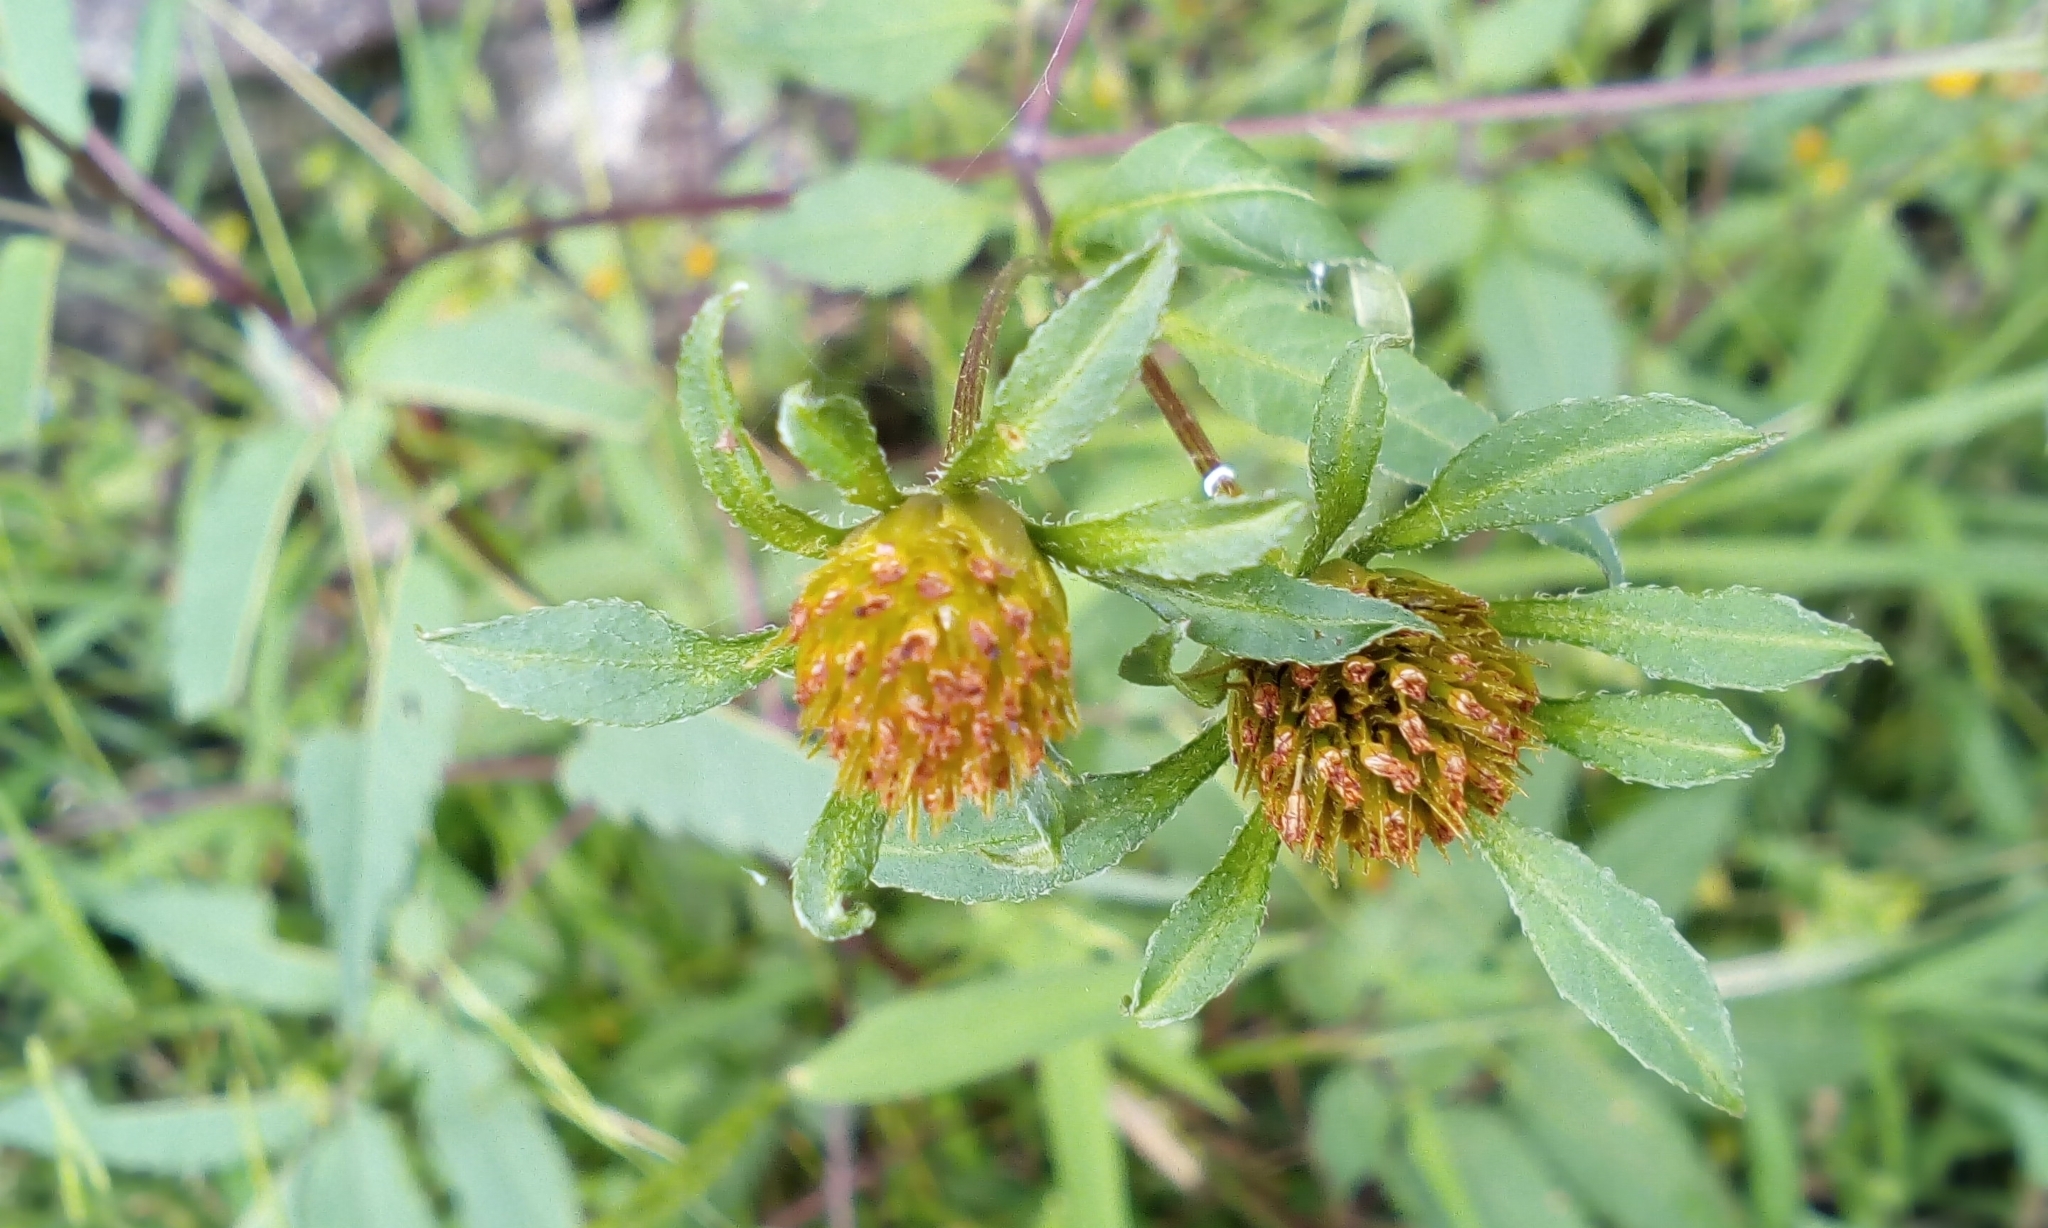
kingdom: Plantae
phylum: Tracheophyta
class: Magnoliopsida
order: Asterales
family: Asteraceae
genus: Bidens
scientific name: Bidens frondosa
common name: Beggarticks
